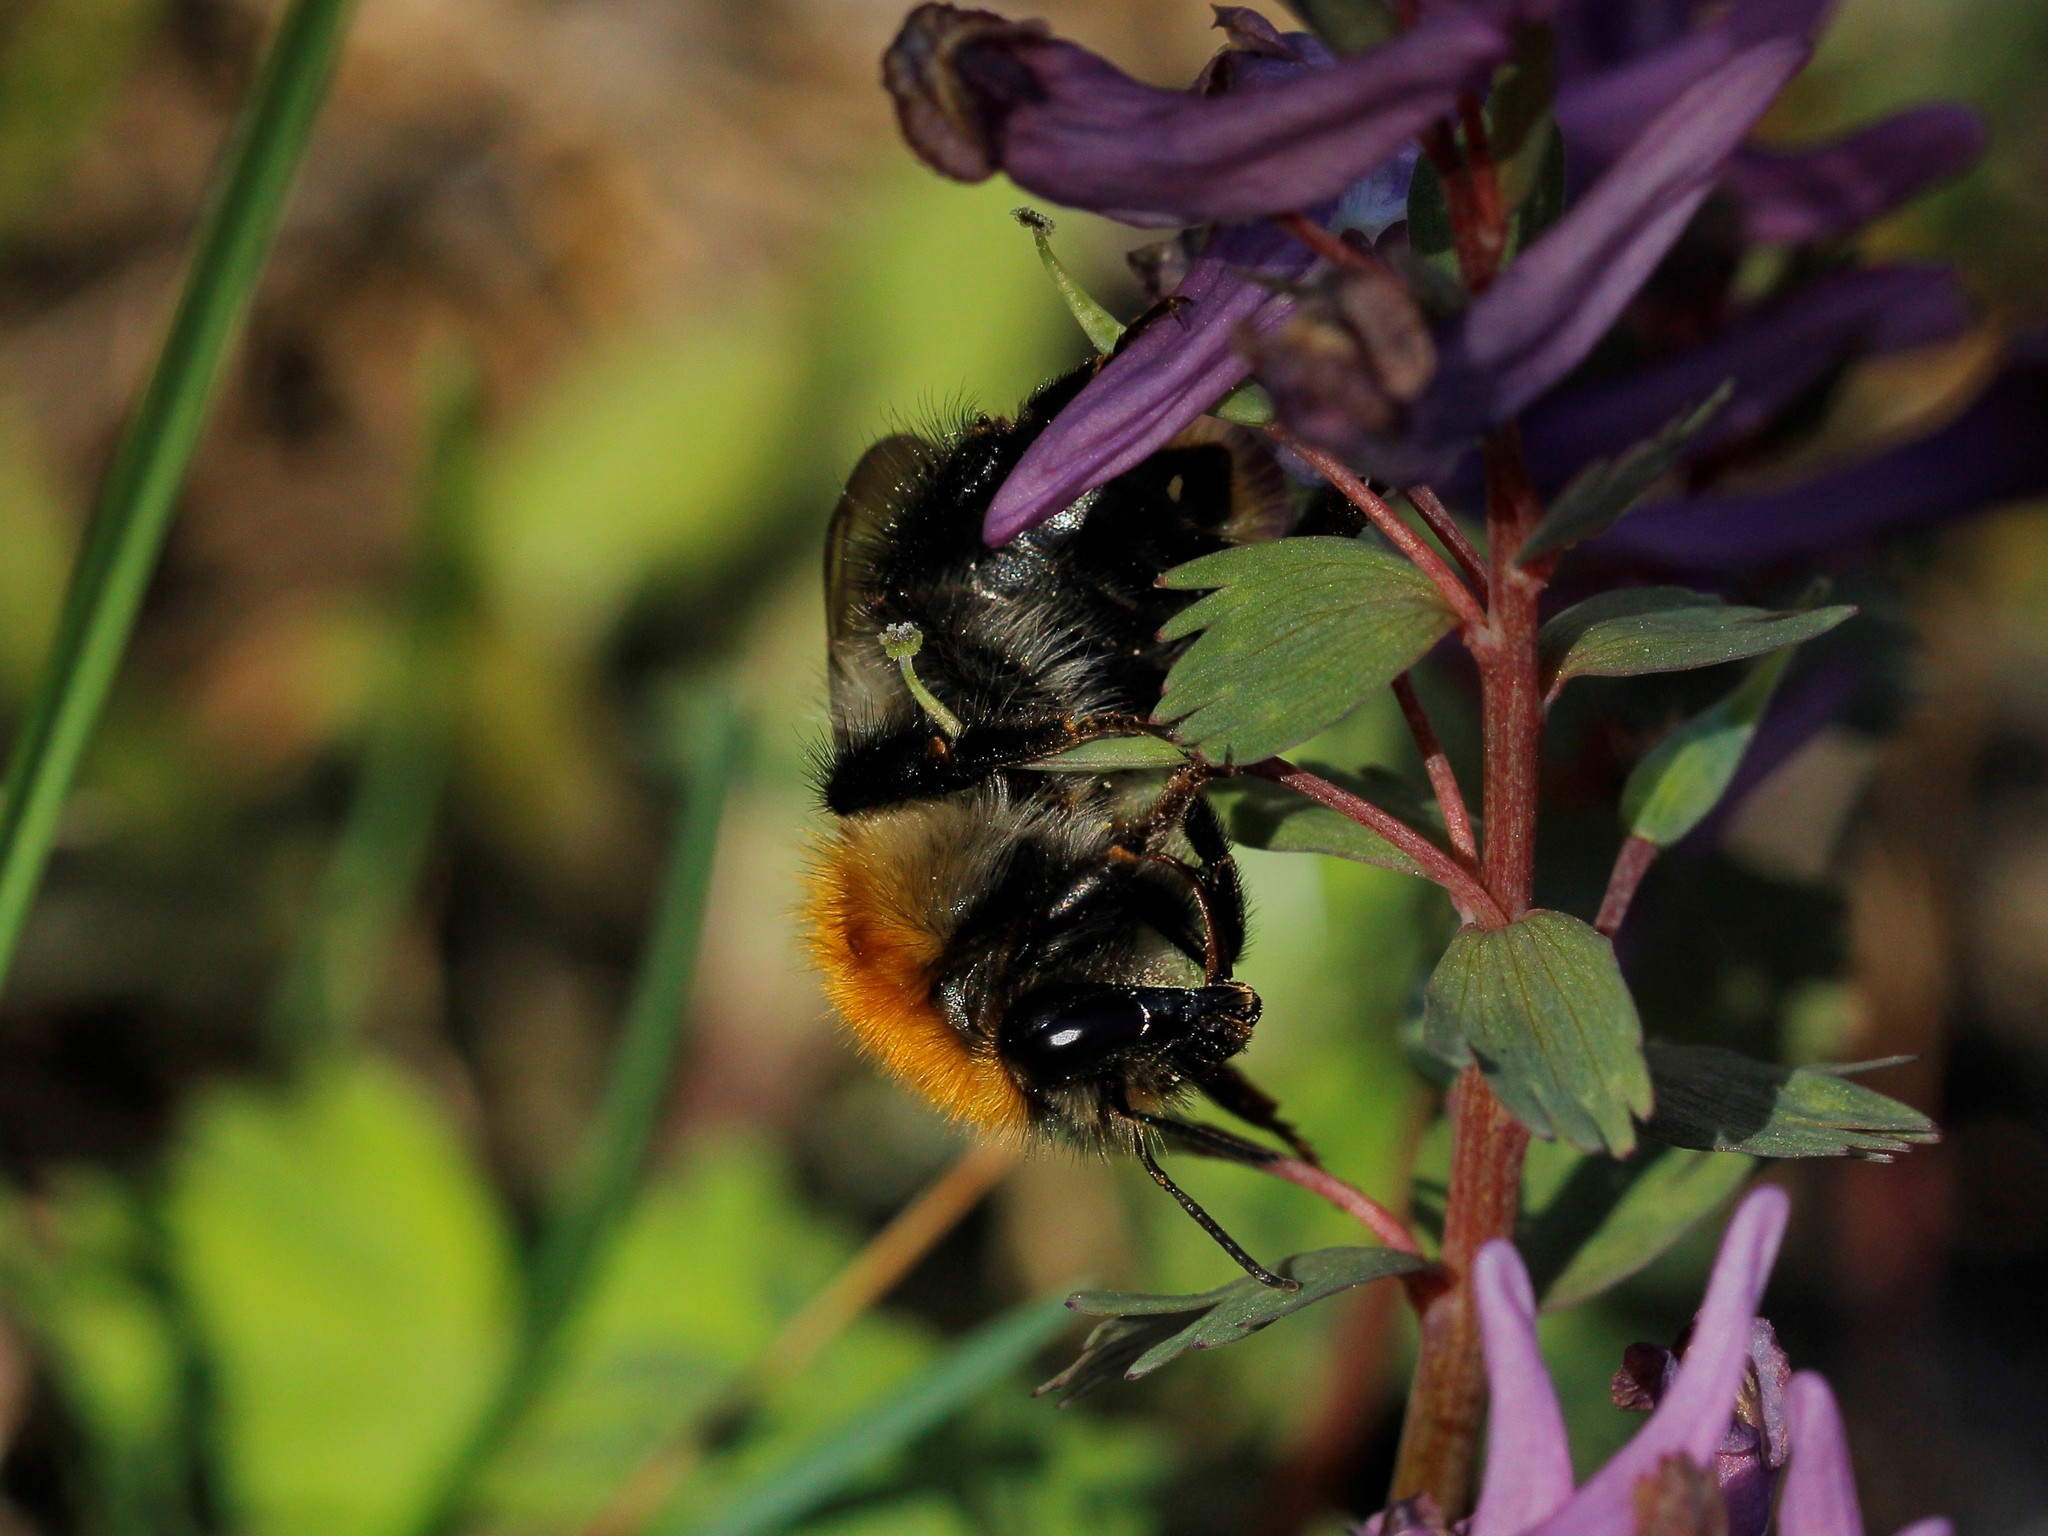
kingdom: Animalia
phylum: Arthropoda
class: Insecta
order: Hymenoptera
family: Apidae
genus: Bombus
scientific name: Bombus pascuorum
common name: Common carder bee
